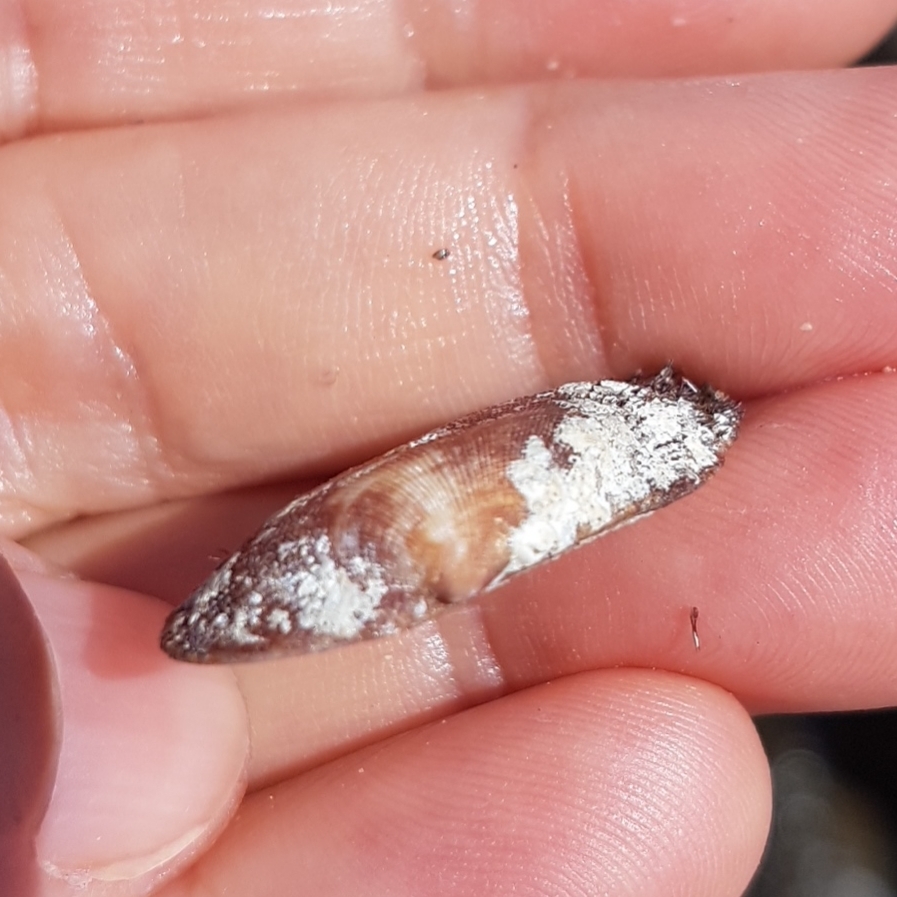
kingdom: Animalia
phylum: Mollusca
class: Bivalvia
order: Arcida
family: Arcidae
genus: Barbatia
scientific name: Barbatia barbata
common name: Bearded ark
